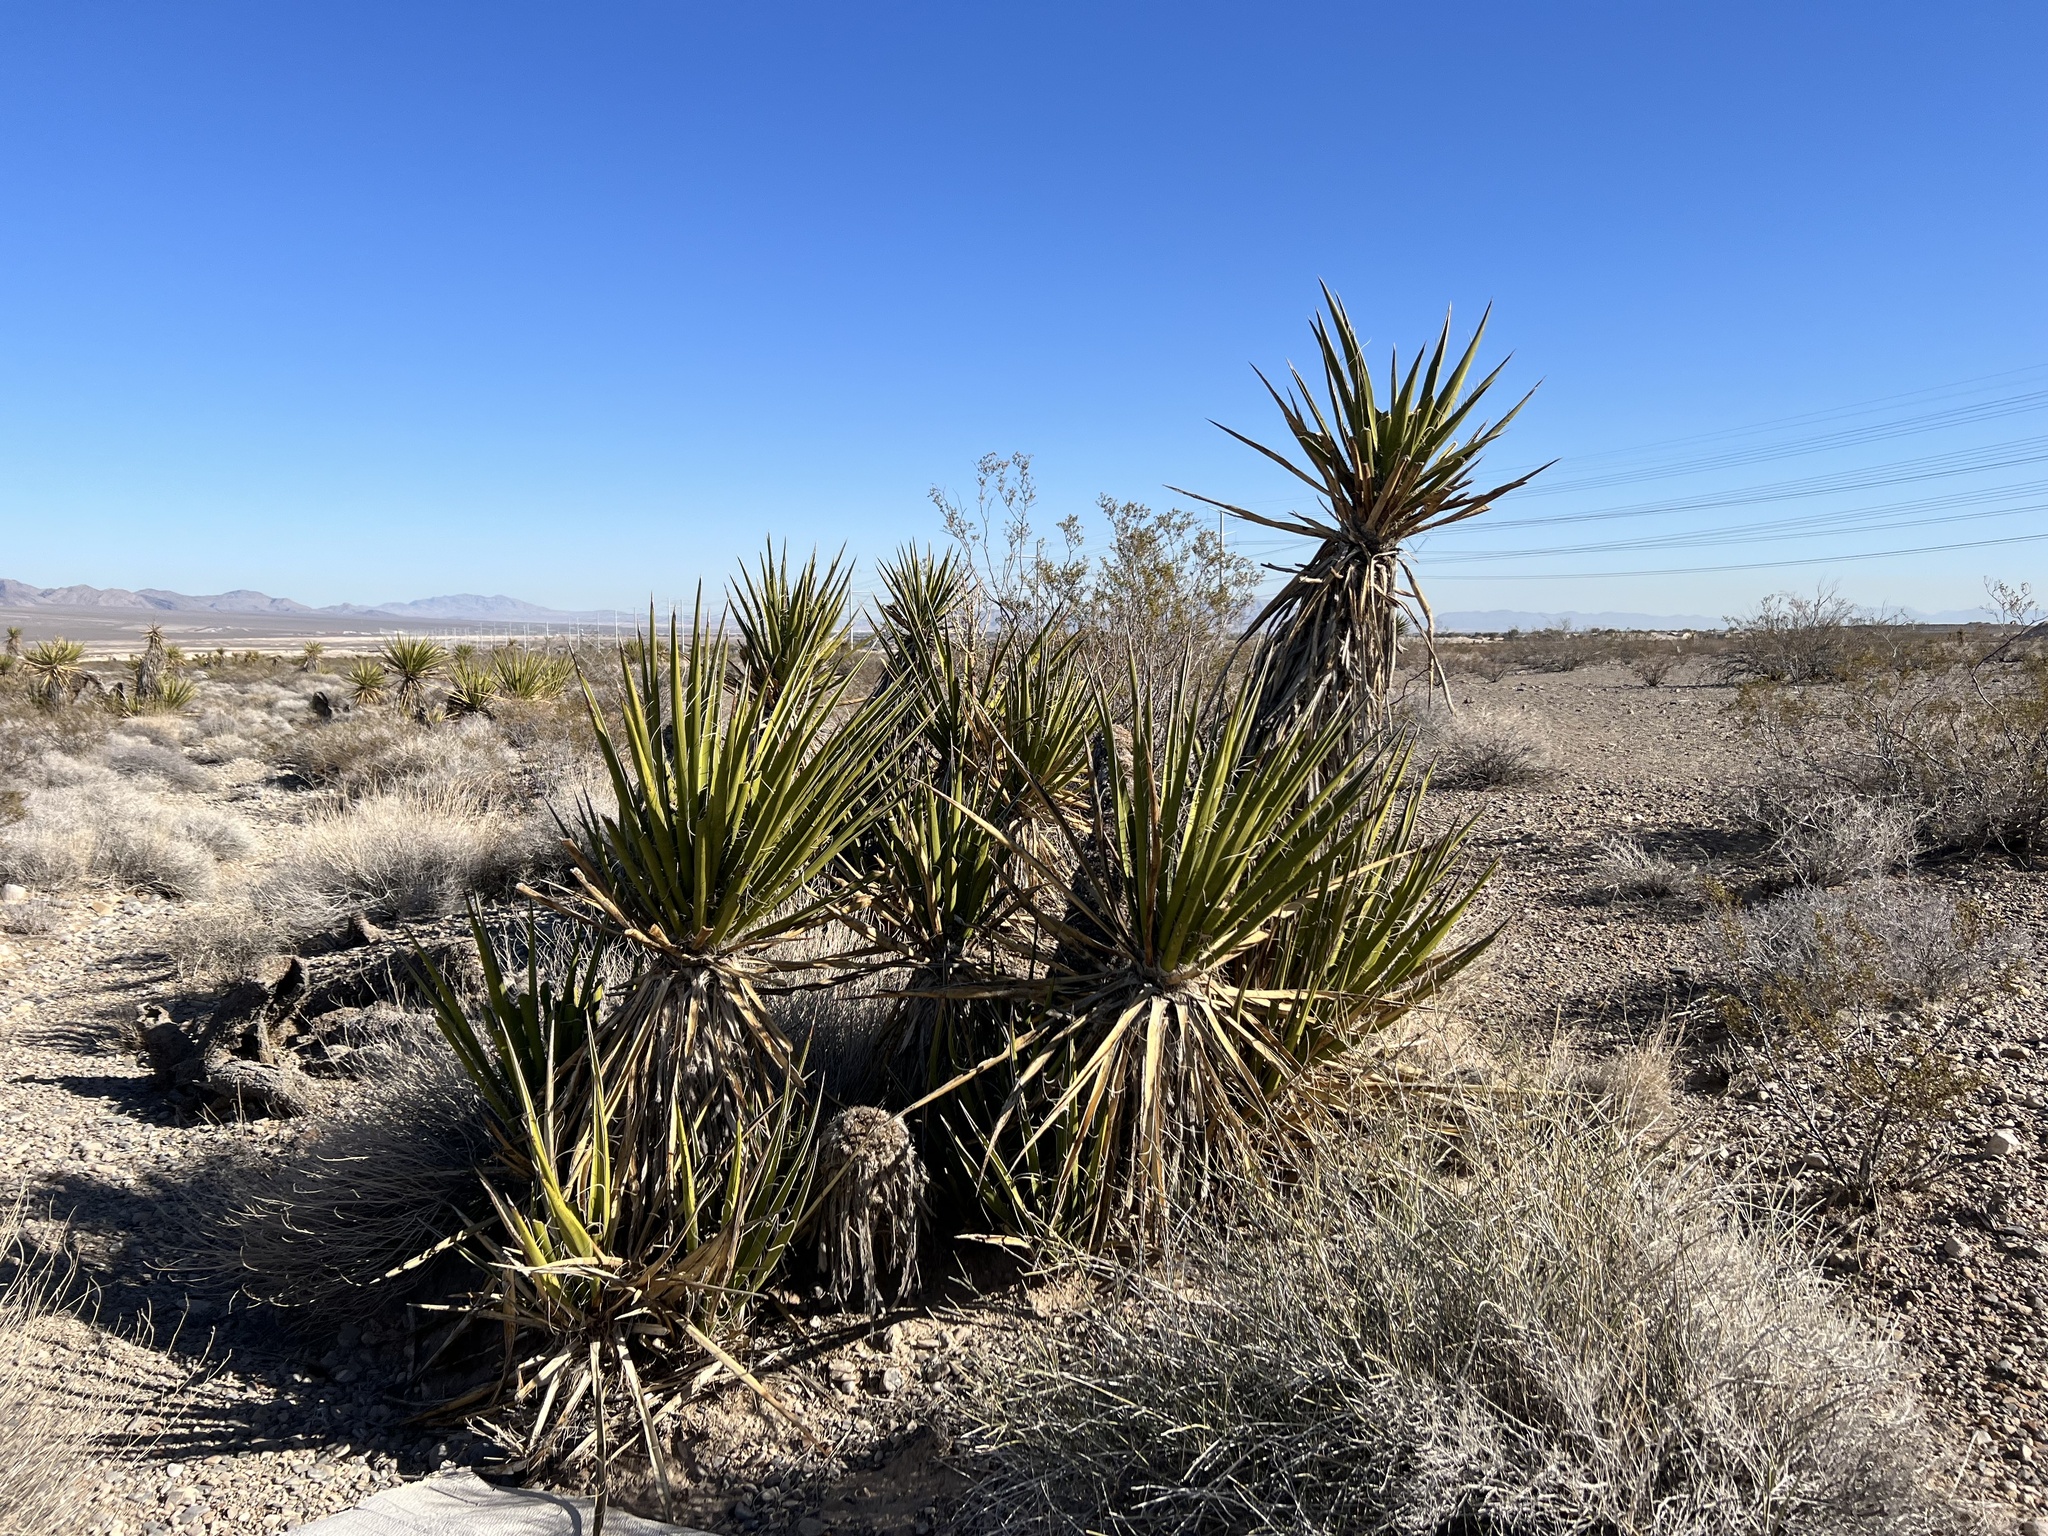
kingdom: Plantae
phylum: Tracheophyta
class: Liliopsida
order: Asparagales
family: Asparagaceae
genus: Yucca
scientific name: Yucca schidigera
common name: Mojave yucca
